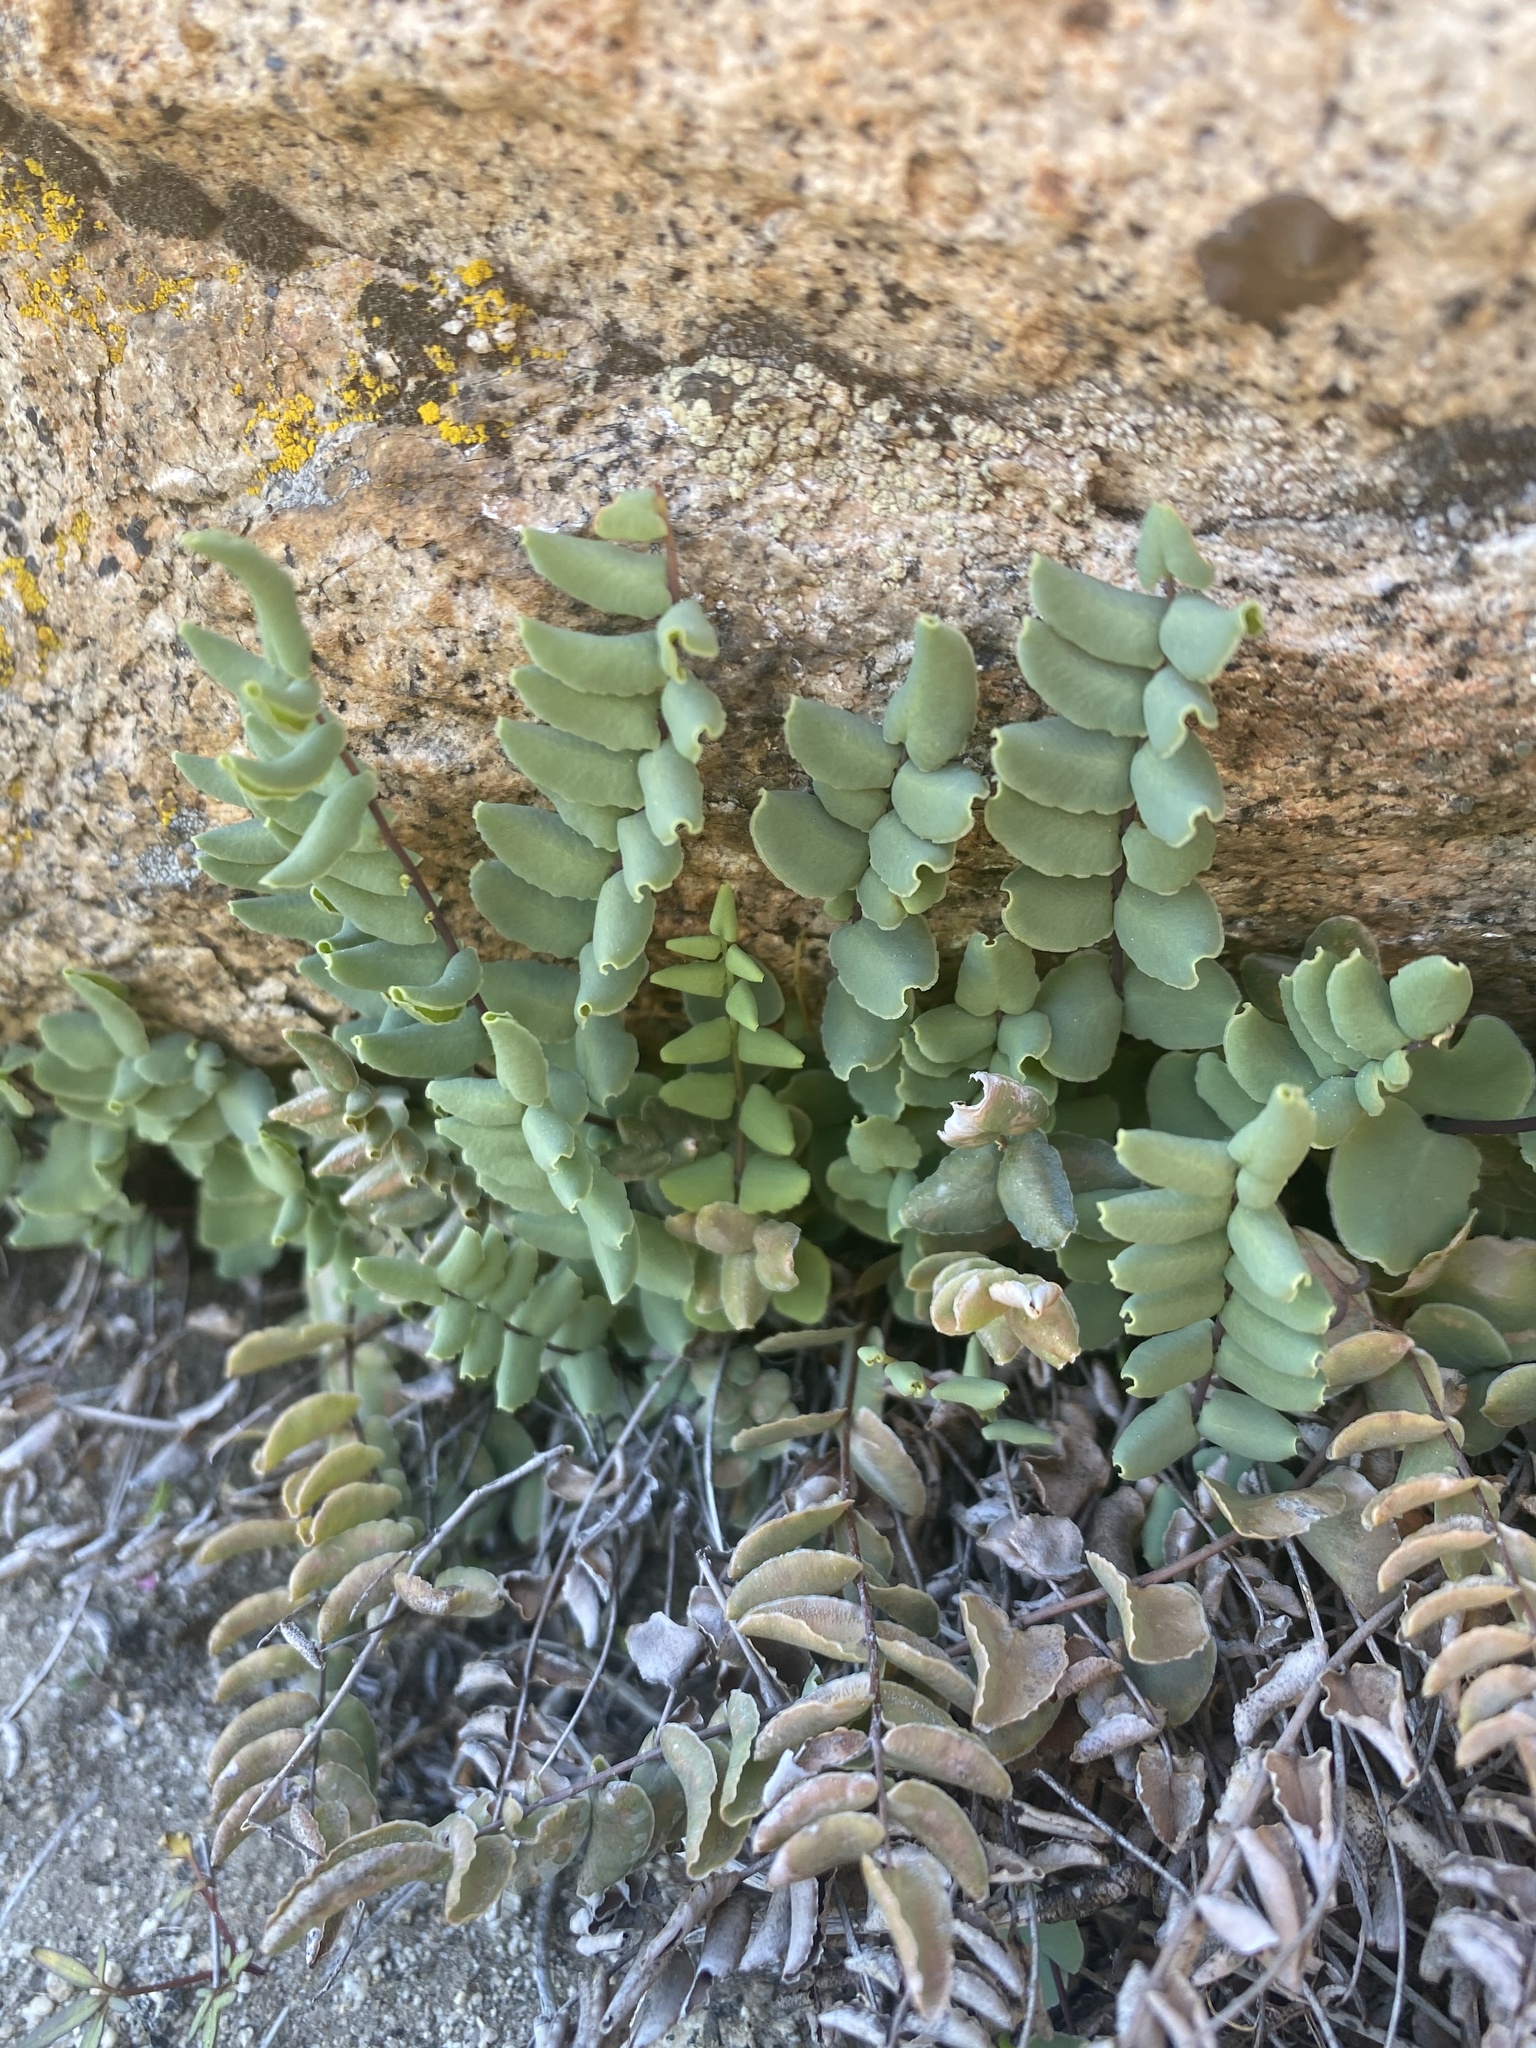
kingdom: Plantae
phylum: Tracheophyta
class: Polypodiopsida
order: Polypodiales
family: Pteridaceae
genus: Pellaea
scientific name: Pellaea bridgesii
